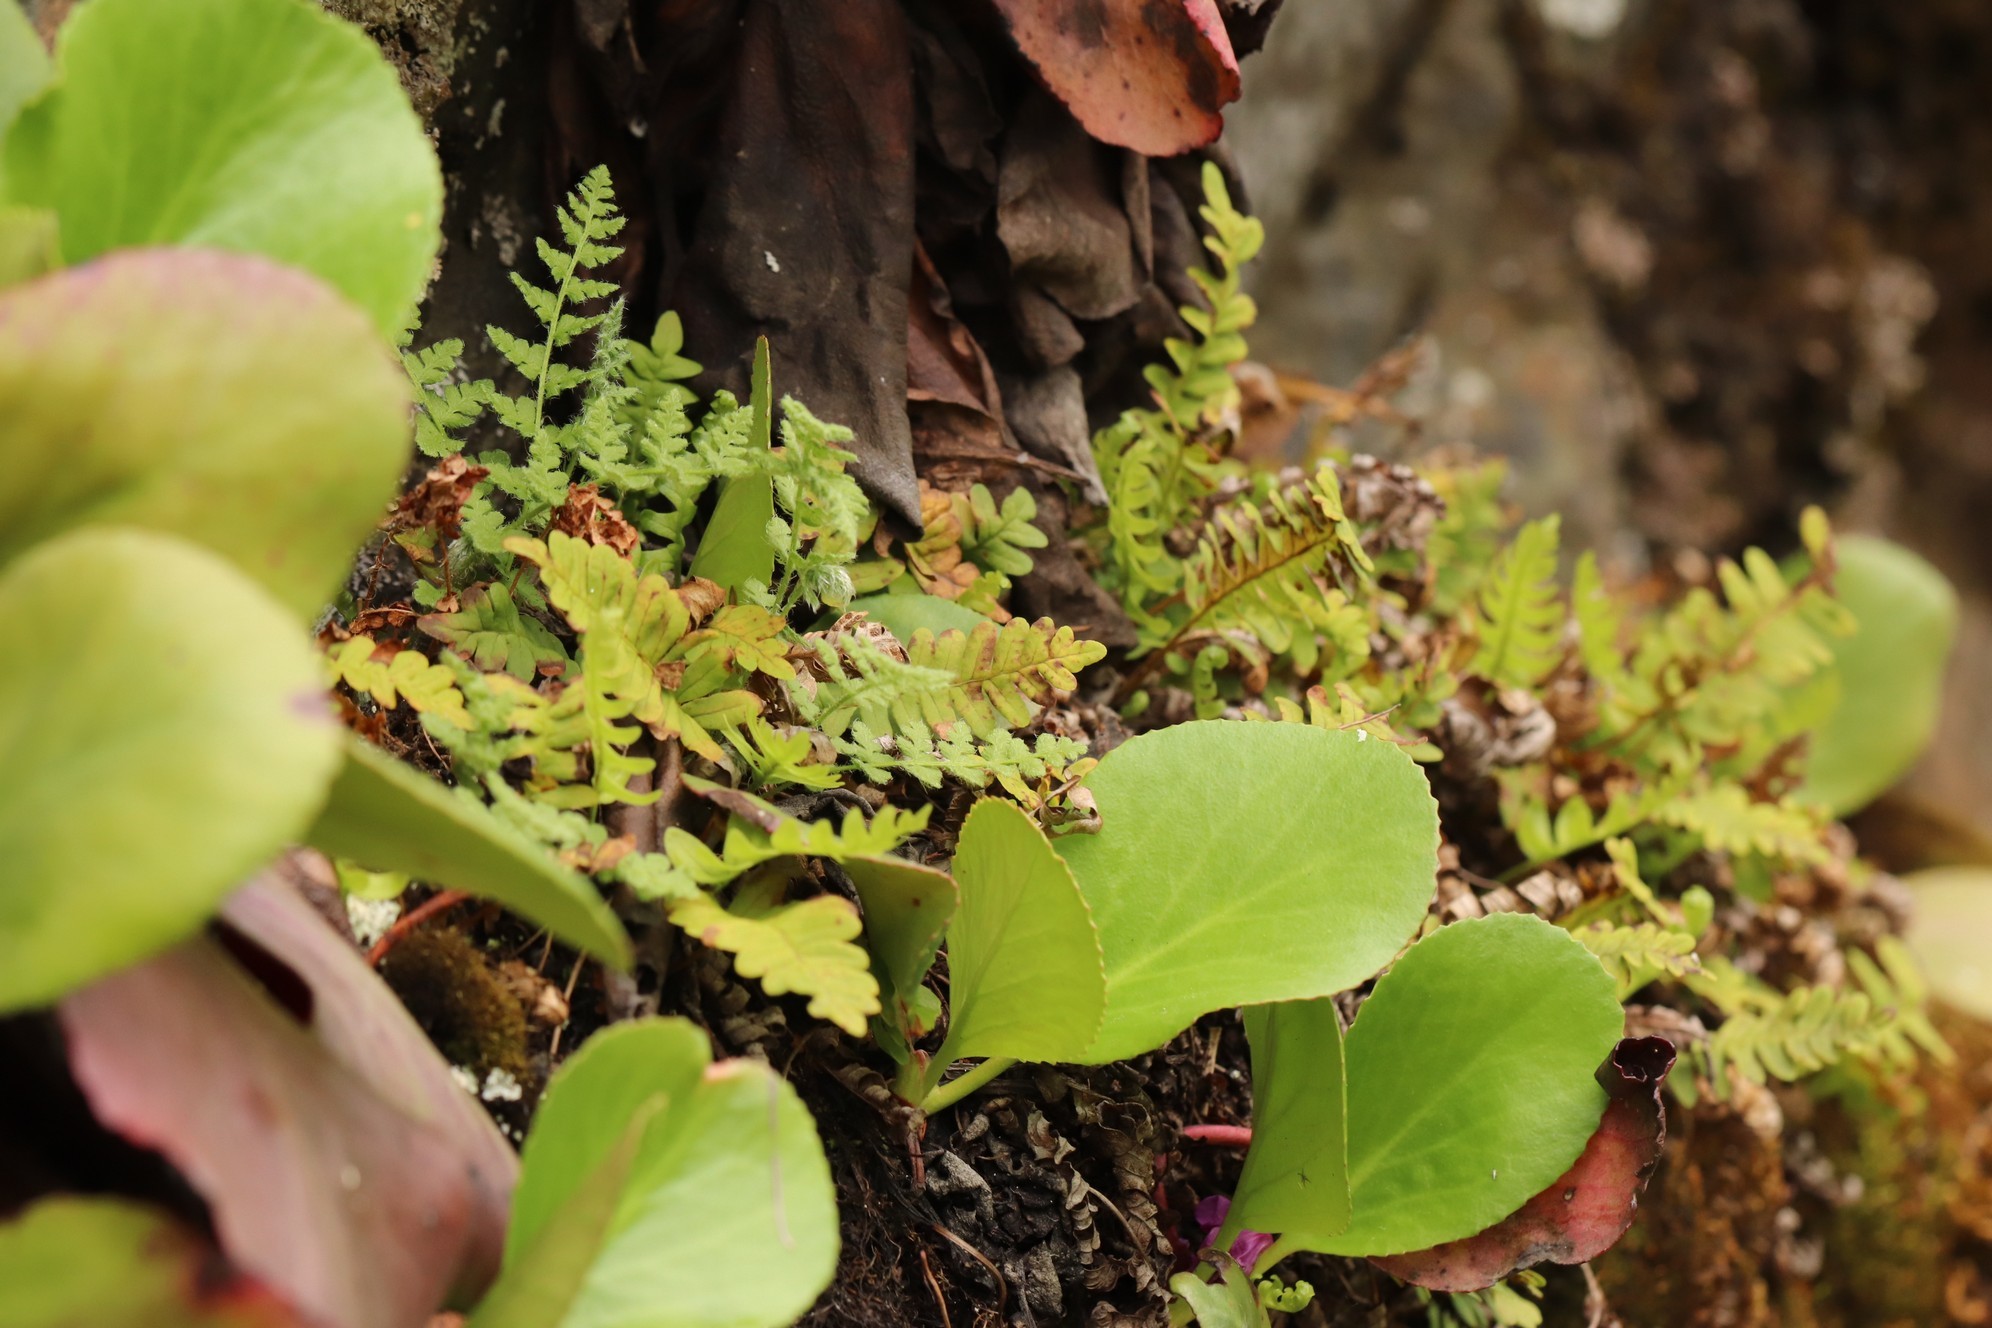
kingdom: Plantae
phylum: Tracheophyta
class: Polypodiopsida
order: Polypodiales
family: Polypodiaceae
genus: Polypodium
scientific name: Polypodium vulgare
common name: Common polypody
